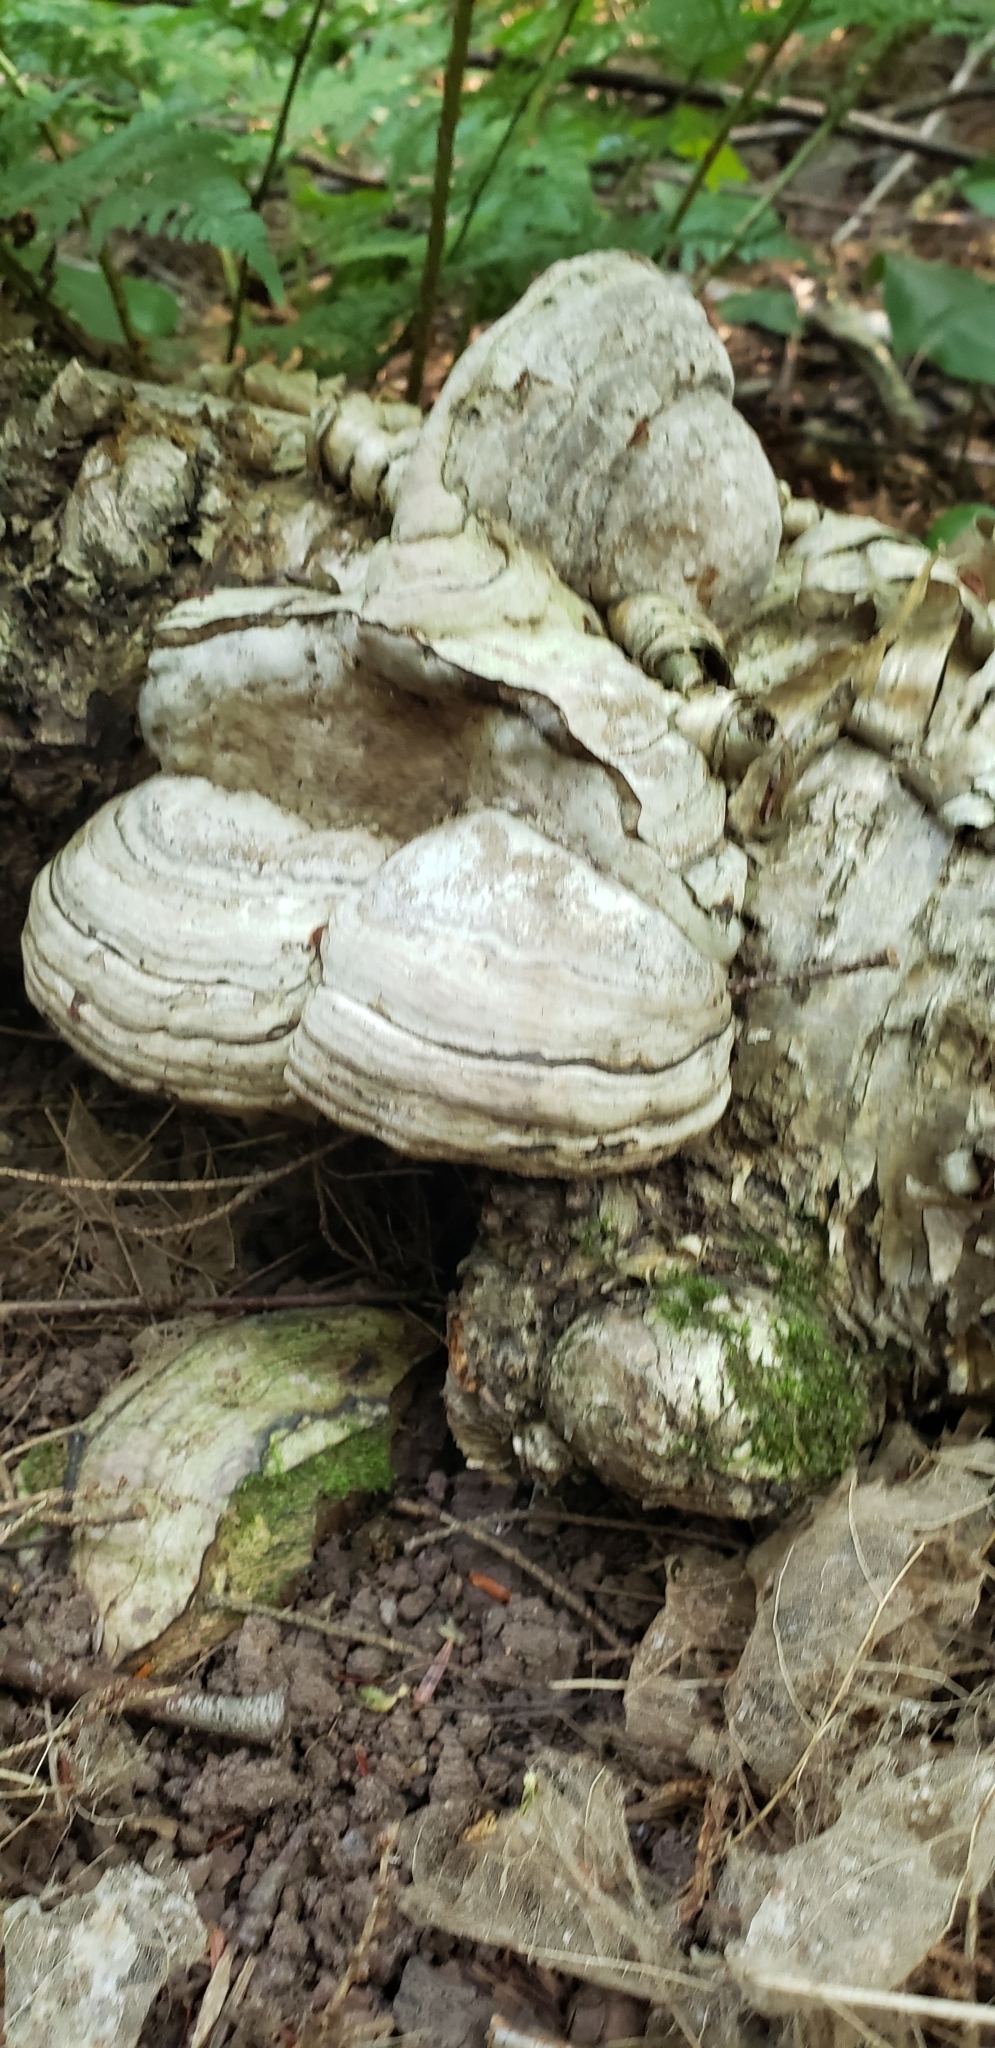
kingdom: Fungi
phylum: Basidiomycota
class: Agaricomycetes
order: Polyporales
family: Polyporaceae
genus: Fomes
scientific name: Fomes fomentarius
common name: Hoof fungus
